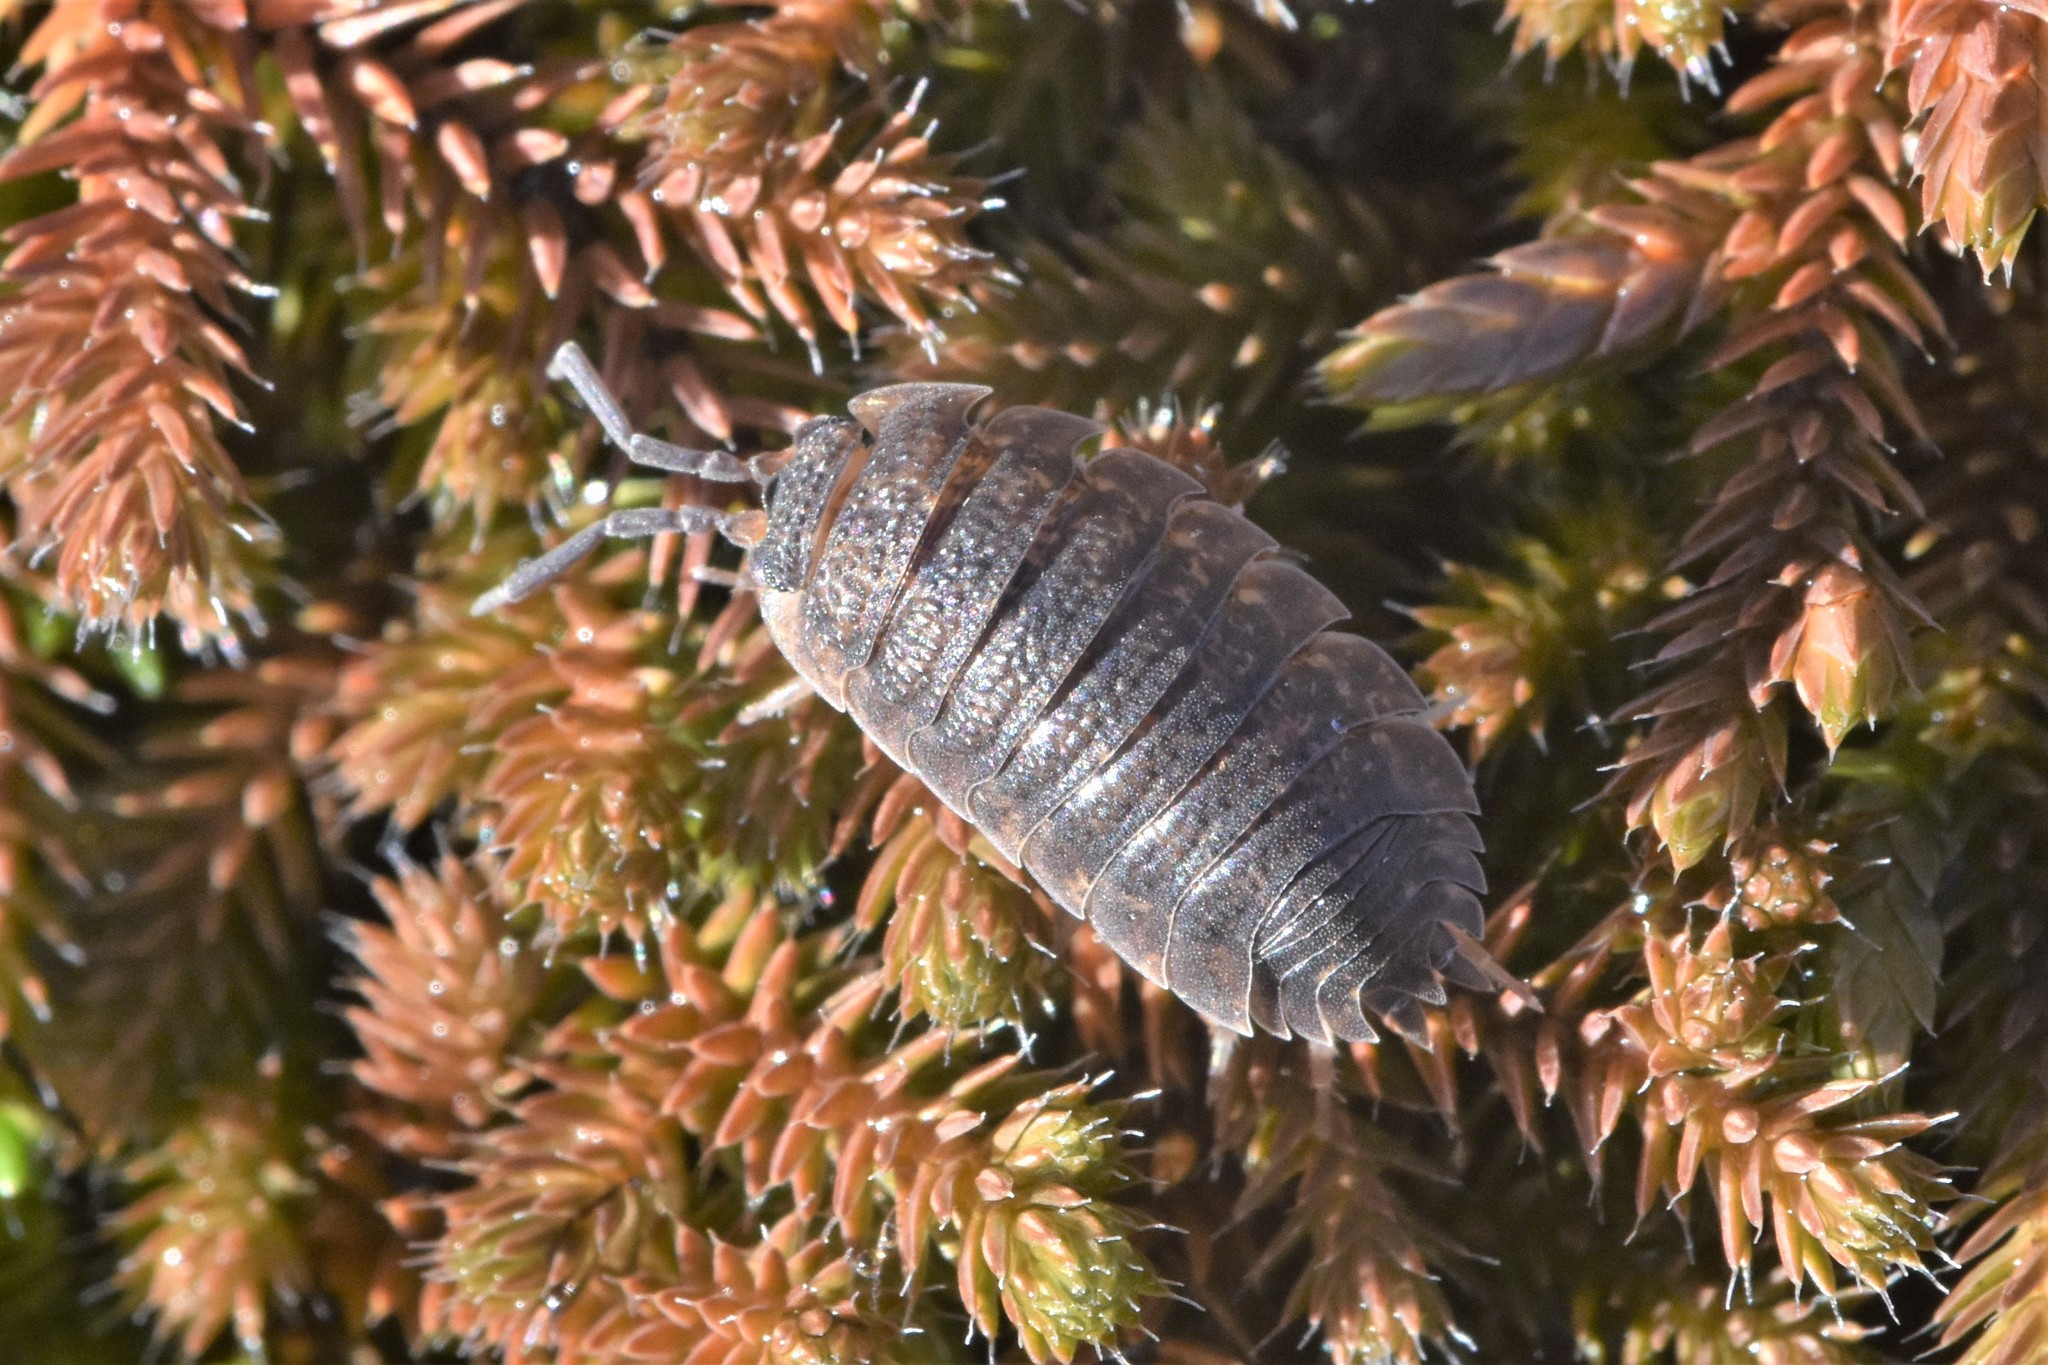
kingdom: Animalia
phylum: Arthropoda
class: Malacostraca
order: Isopoda
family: Porcellionidae
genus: Porcellio
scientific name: Porcellio scaber
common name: Common rough woodlouse
